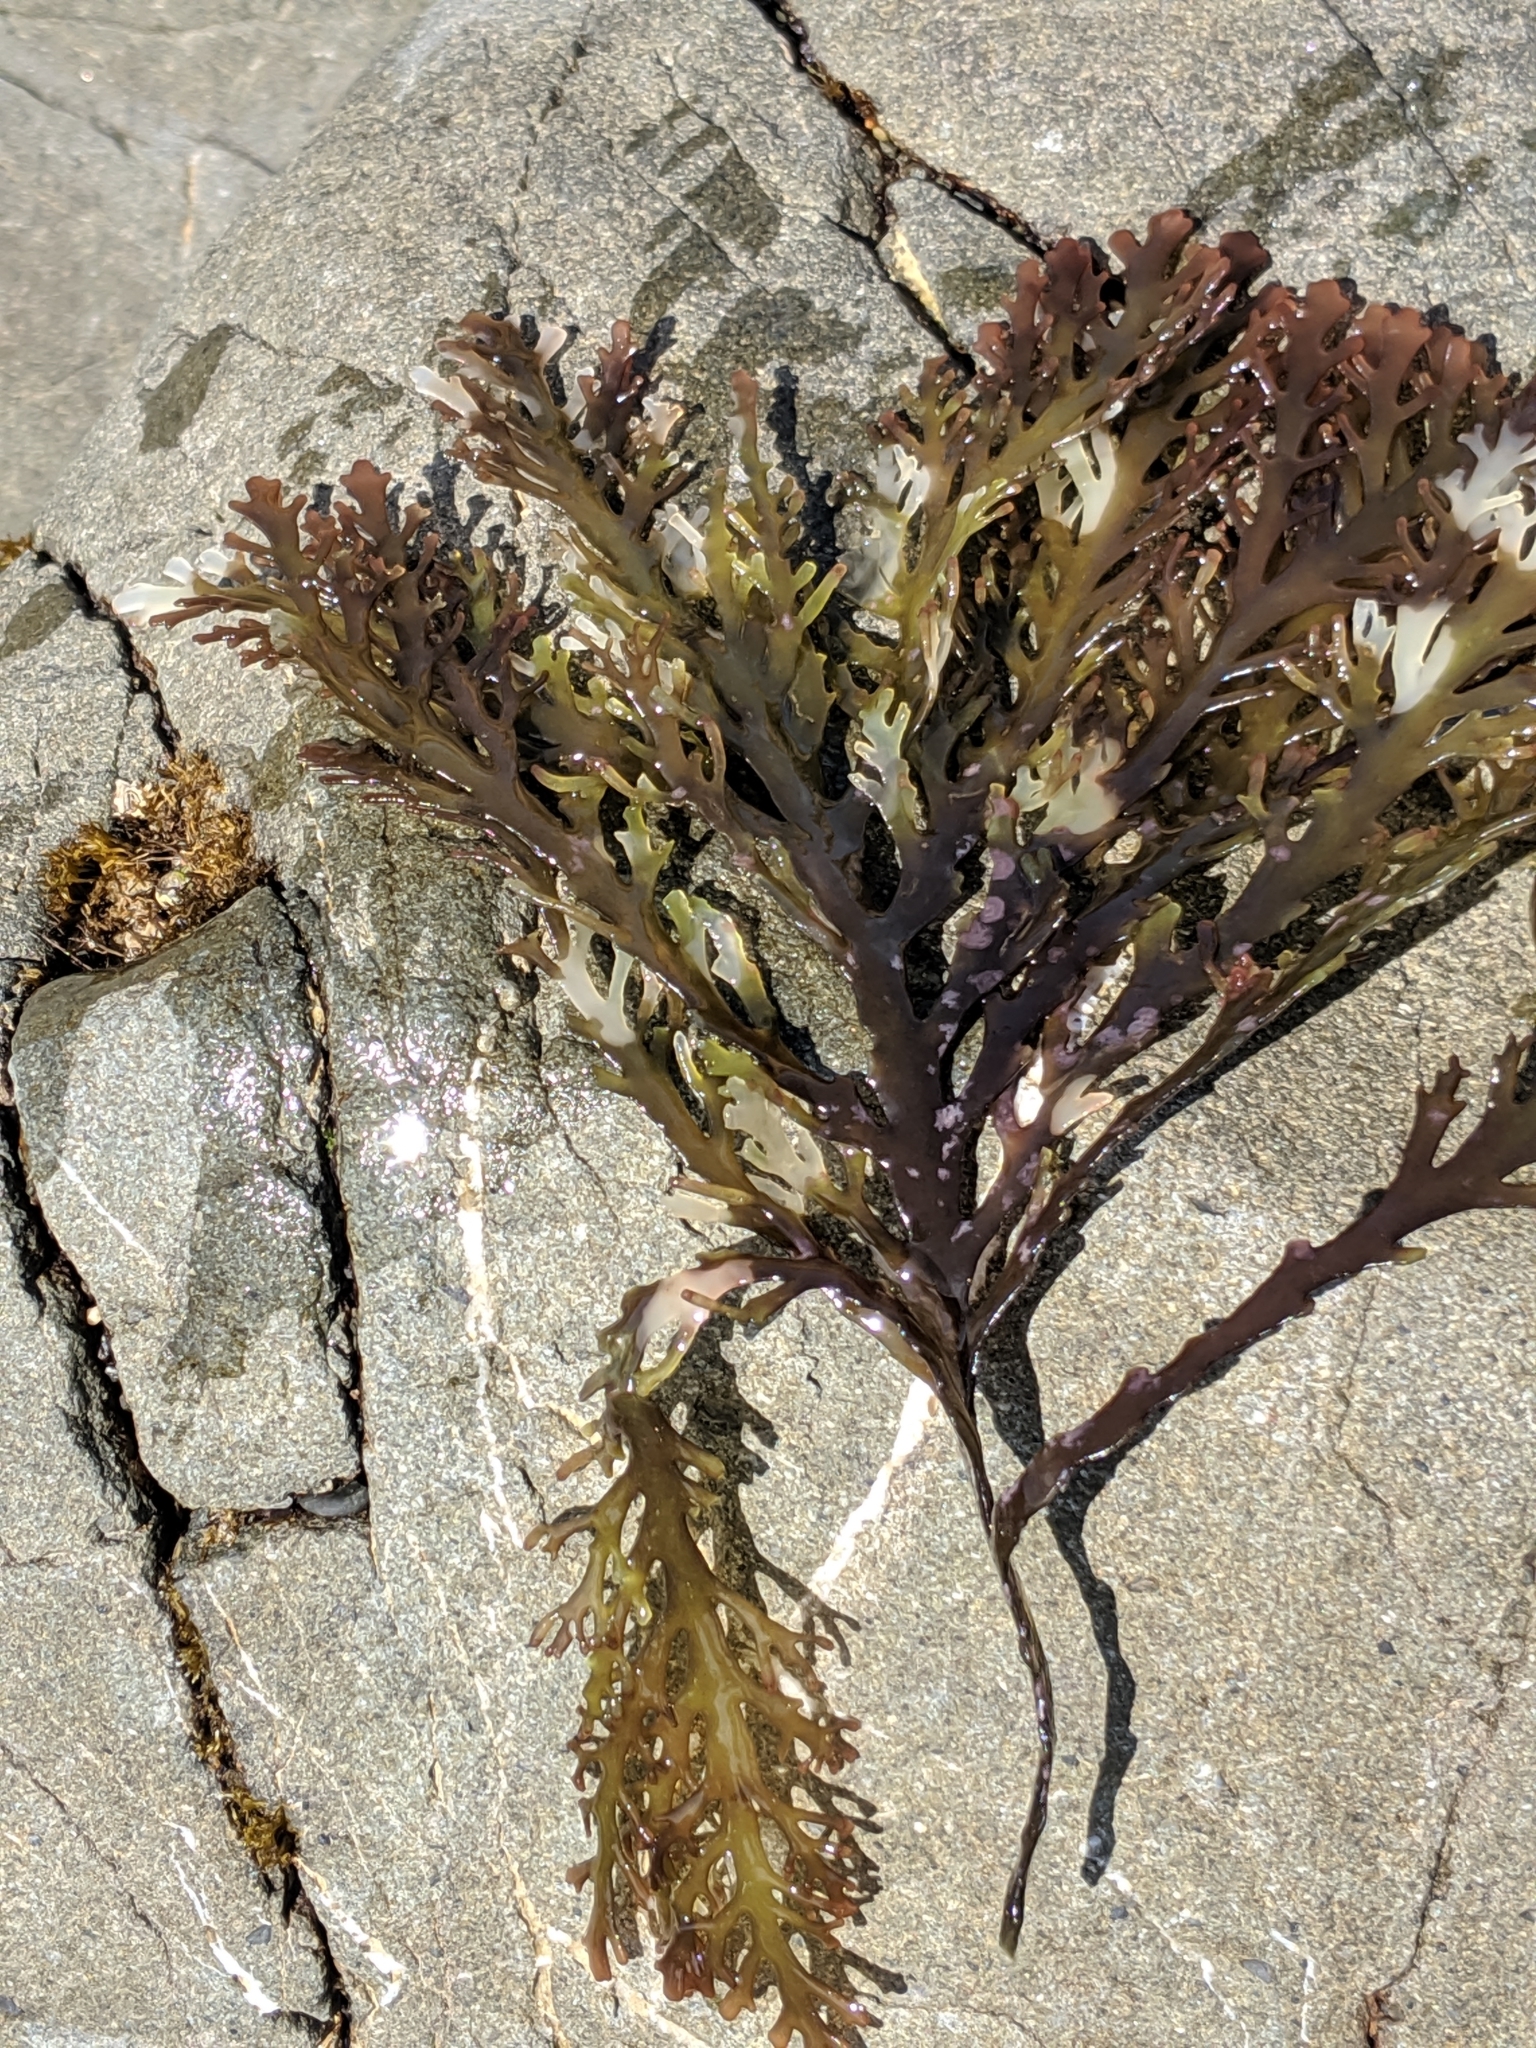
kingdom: Plantae
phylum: Rhodophyta
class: Florideophyceae
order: Ceramiales
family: Rhodomelaceae
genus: Osmundea
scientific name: Osmundea spectabilis
